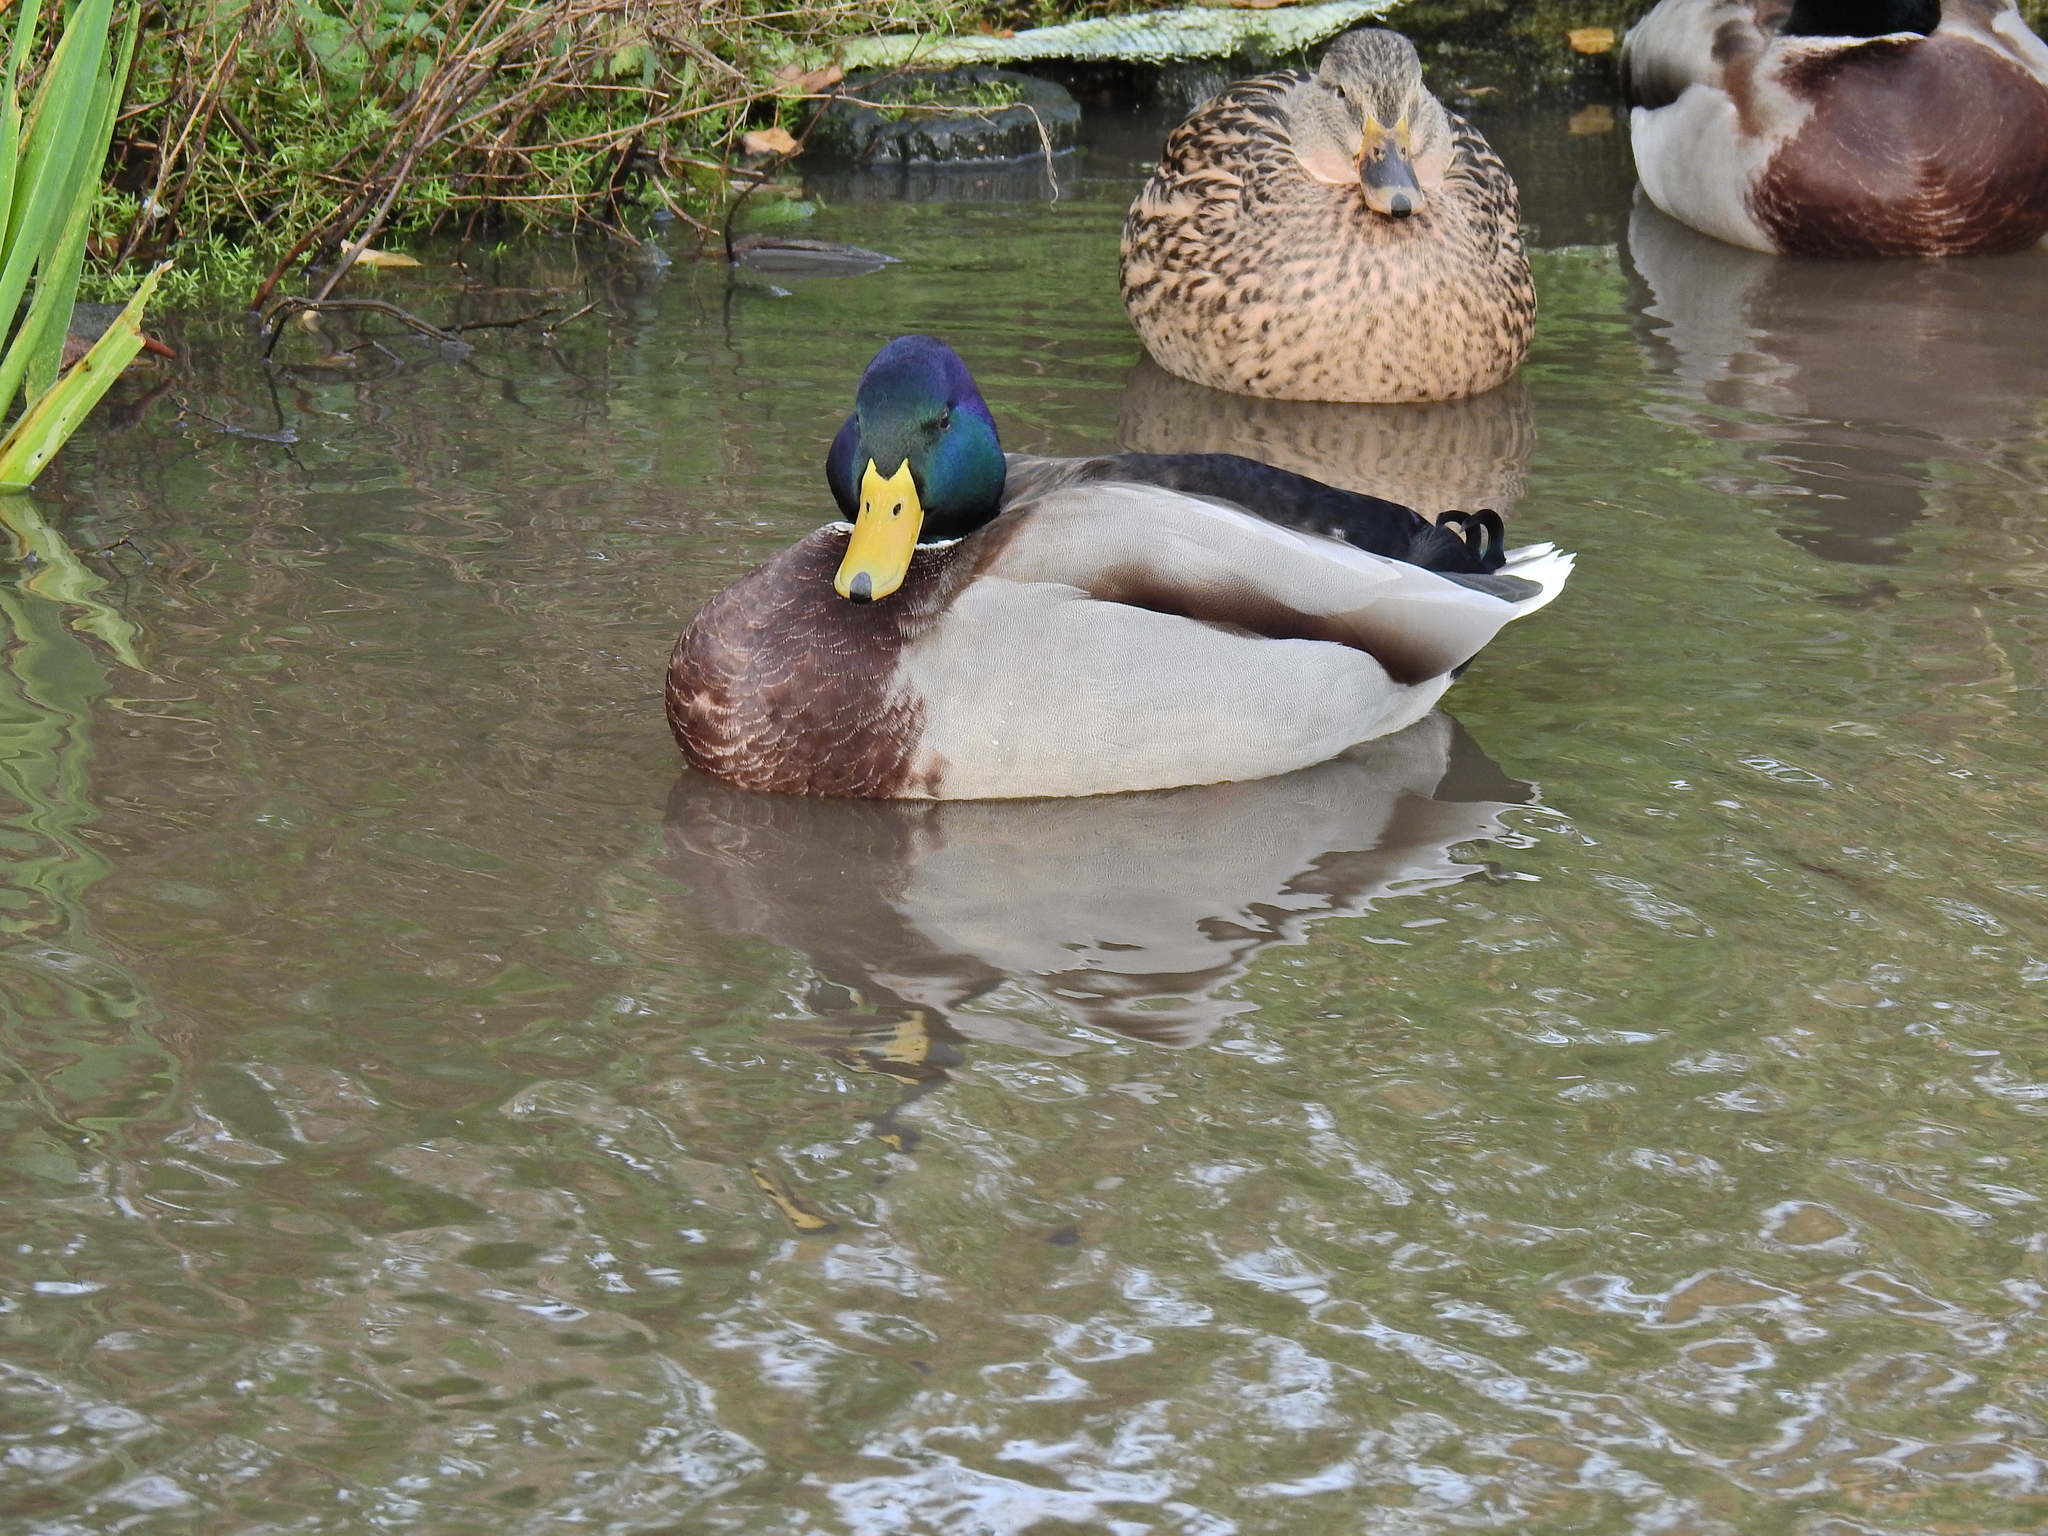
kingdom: Animalia
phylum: Chordata
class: Aves
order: Anseriformes
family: Anatidae
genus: Anas
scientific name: Anas platyrhynchos
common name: Mallard
